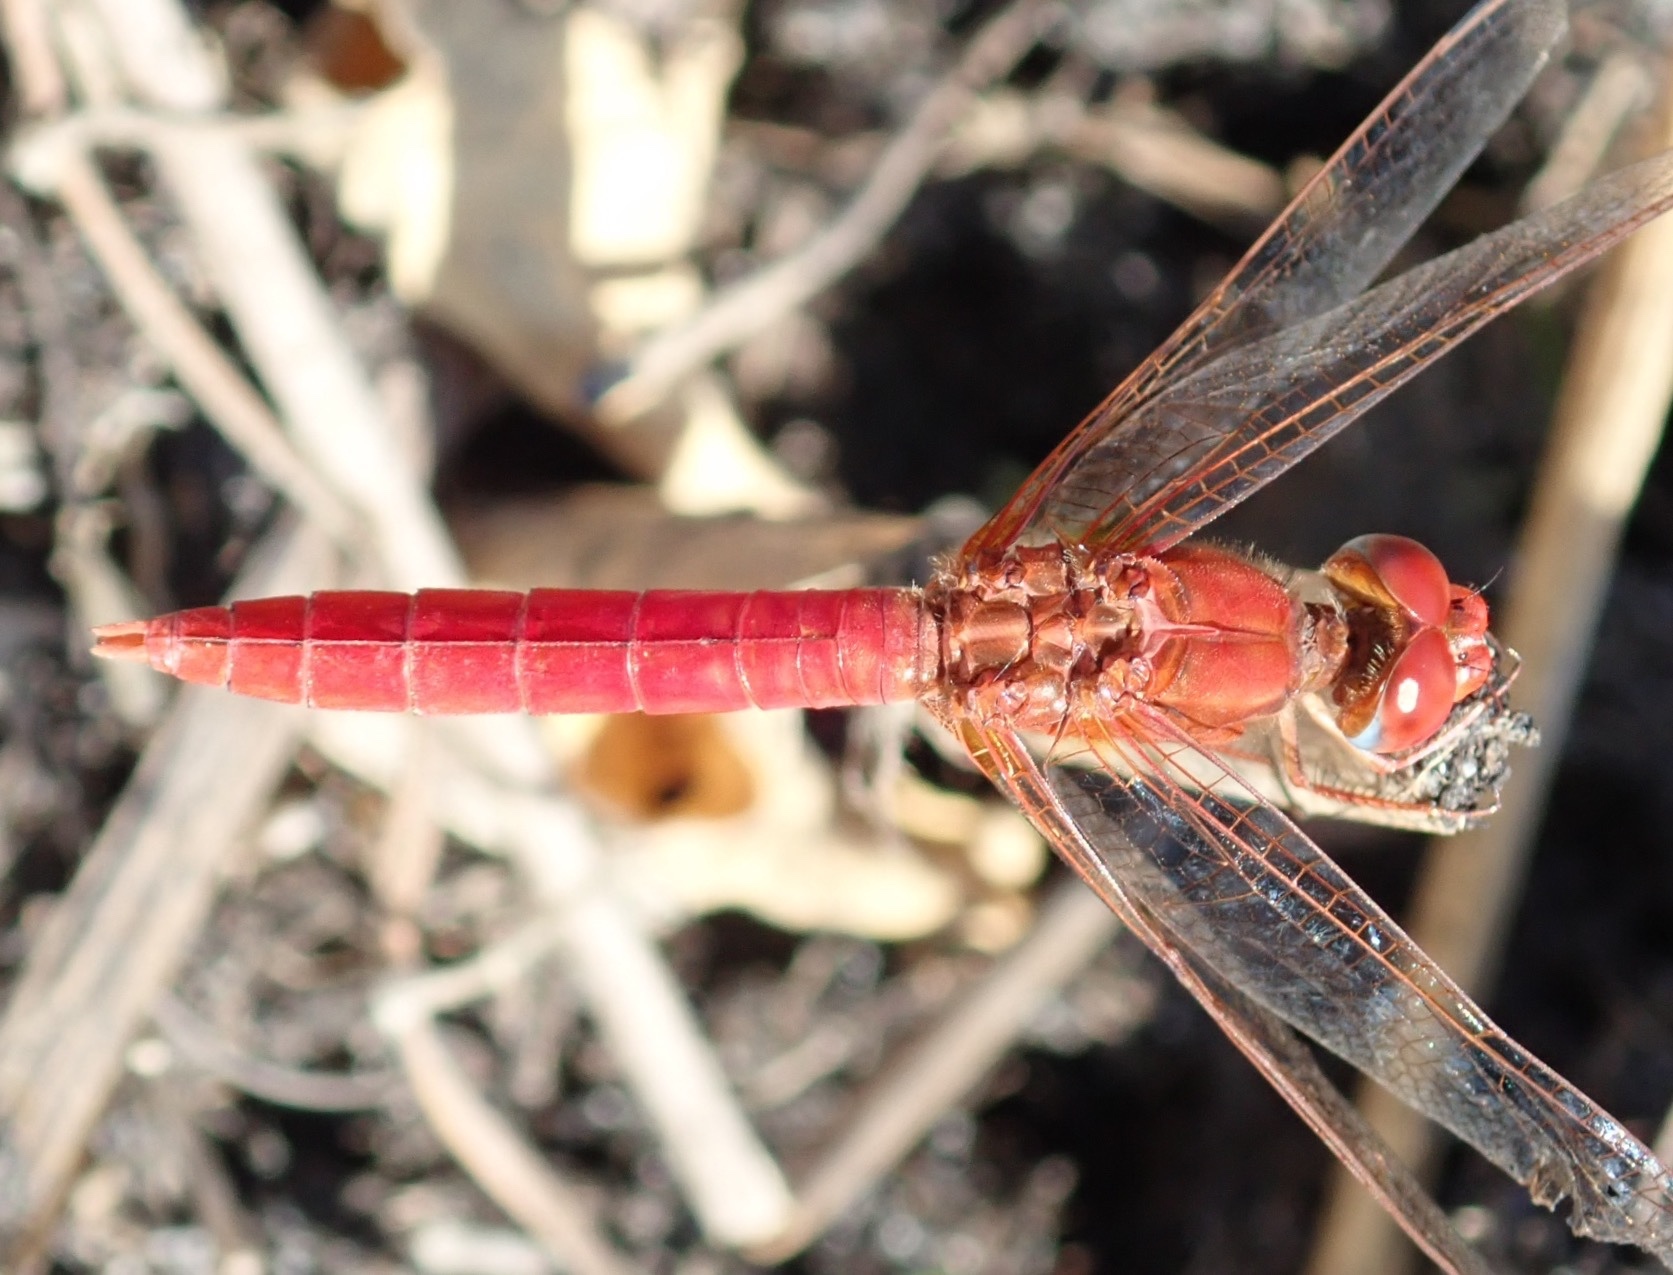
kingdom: Animalia
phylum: Arthropoda
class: Insecta
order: Odonata
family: Libellulidae
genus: Crocothemis
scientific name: Crocothemis erythraea
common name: Scarlet dragonfly
